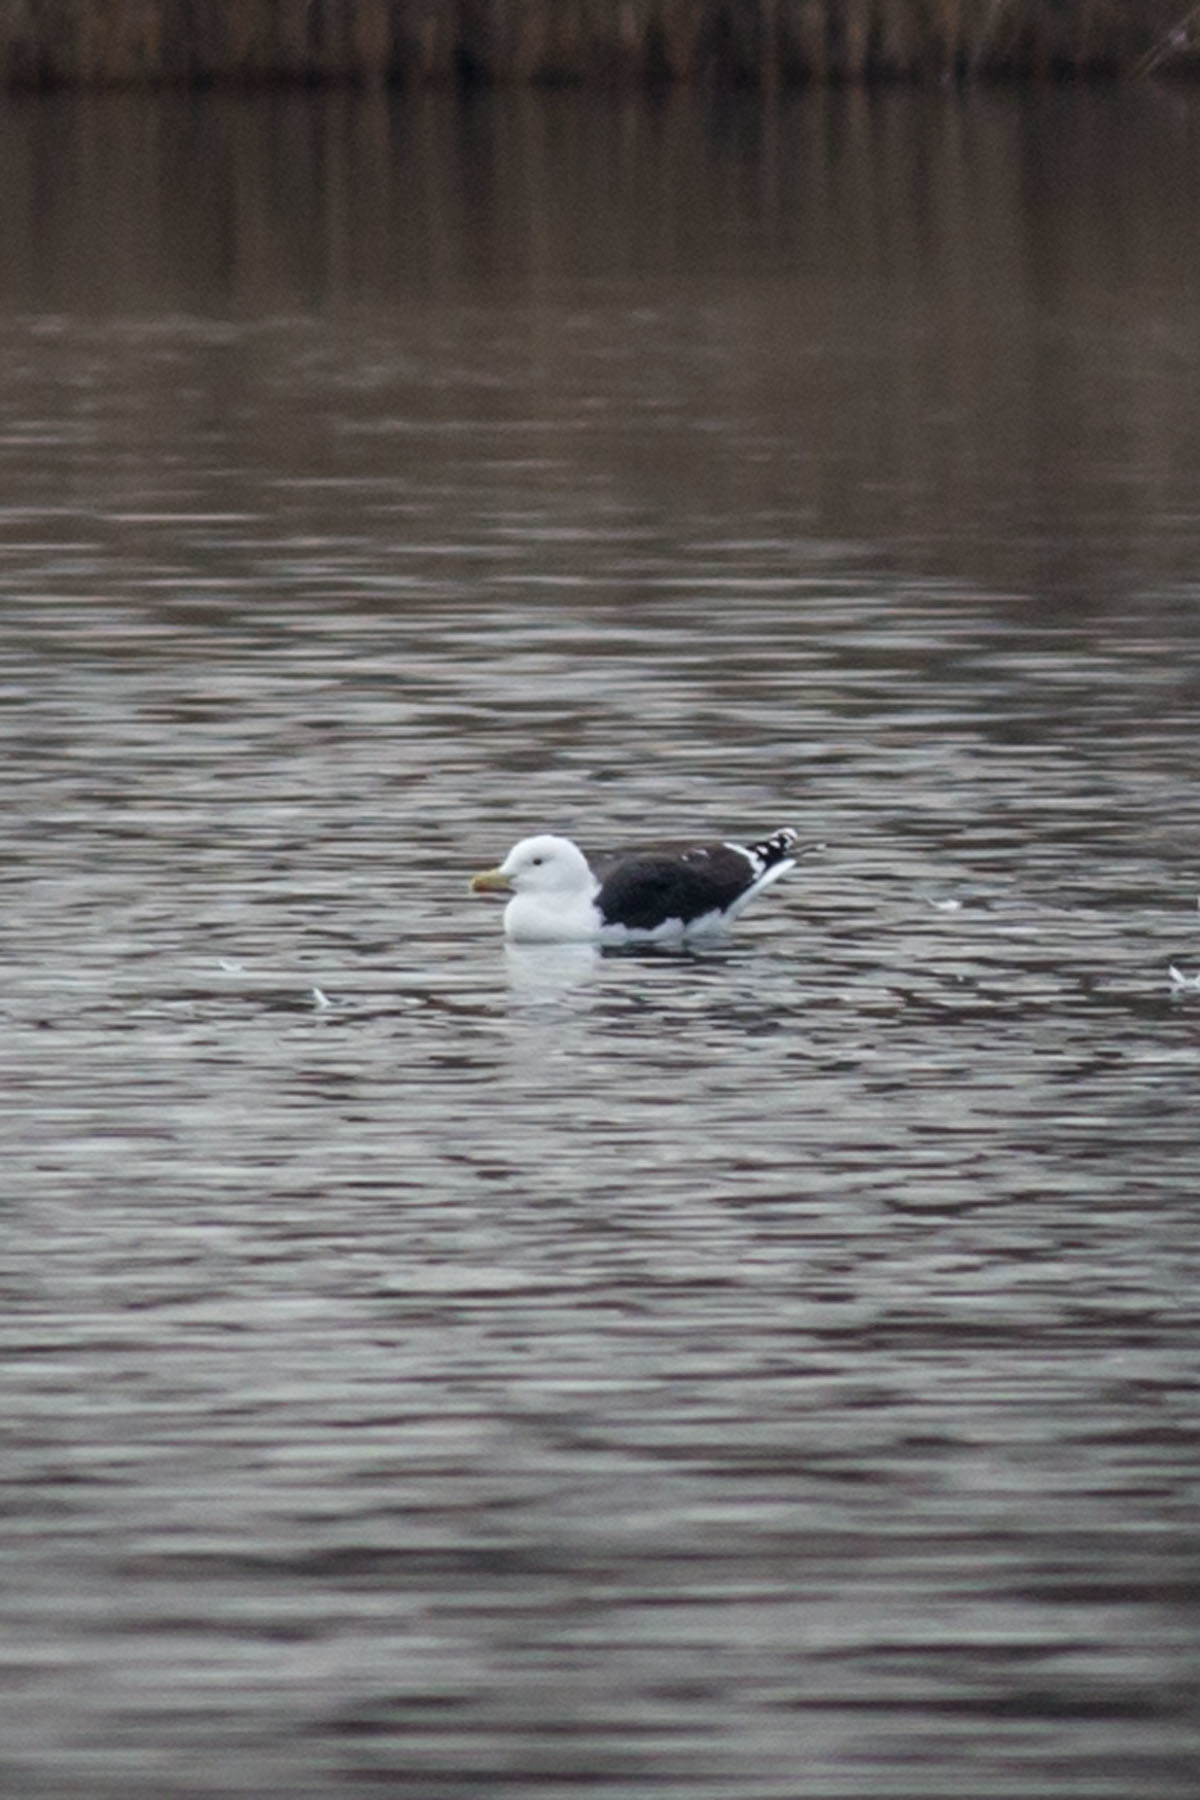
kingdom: Animalia
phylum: Chordata
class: Aves
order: Charadriiformes
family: Laridae
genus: Larus
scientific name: Larus marinus
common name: Great black-backed gull
